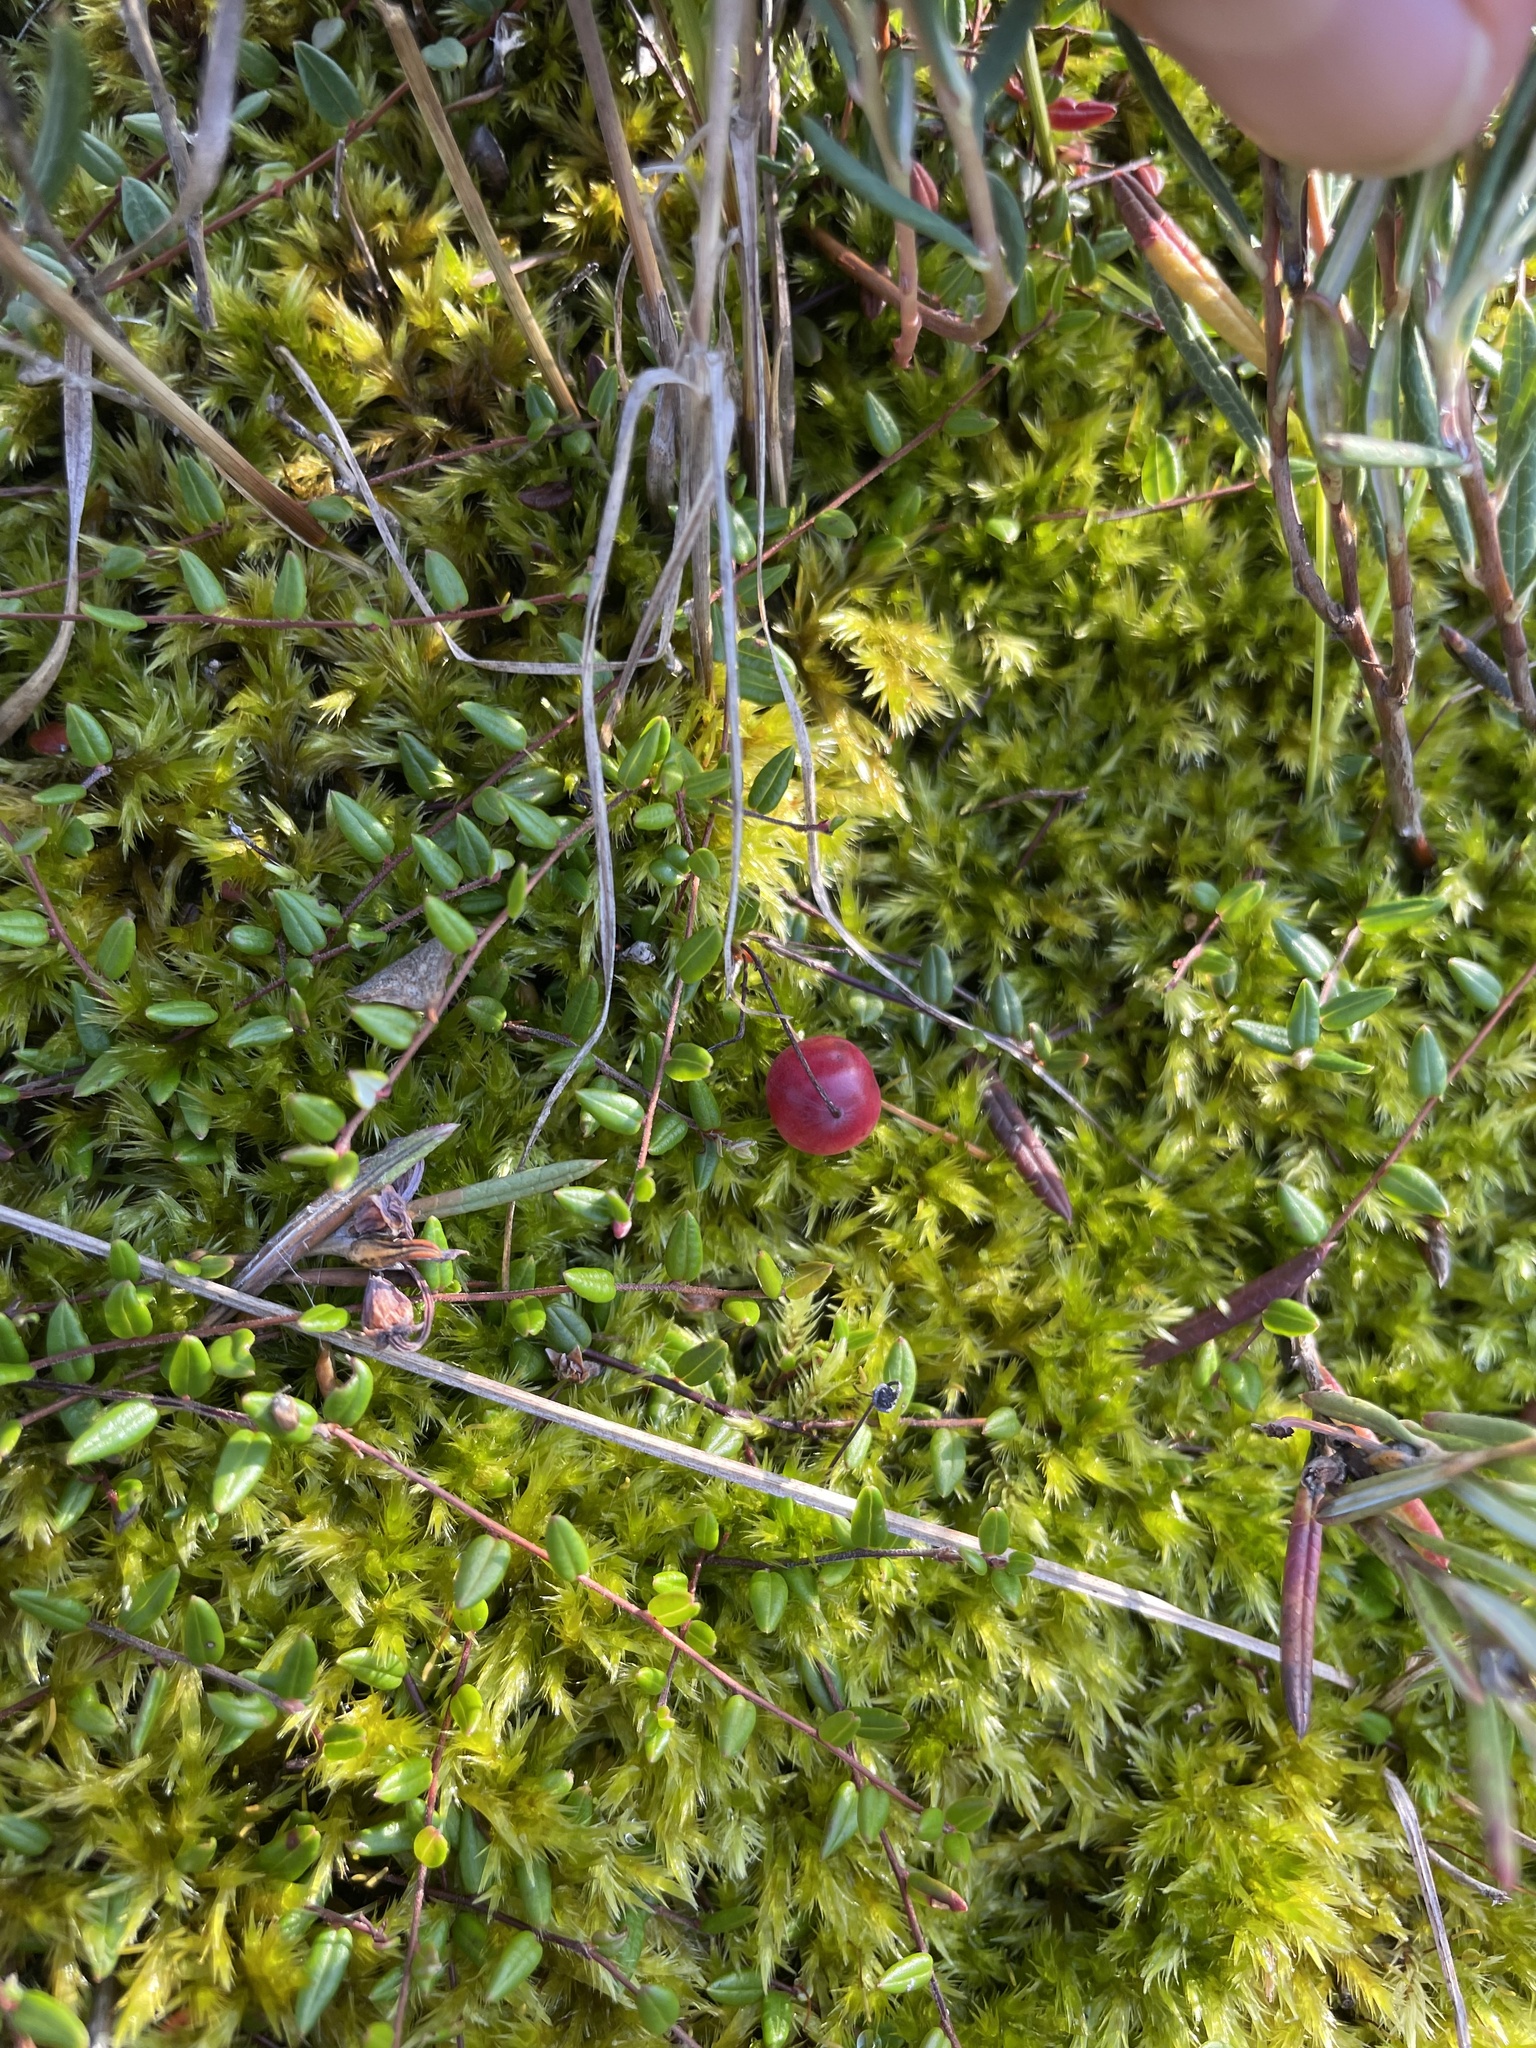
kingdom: Plantae
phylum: Tracheophyta
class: Magnoliopsida
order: Ericales
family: Ericaceae
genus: Vaccinium
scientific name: Vaccinium oxycoccos
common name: Cranberry
